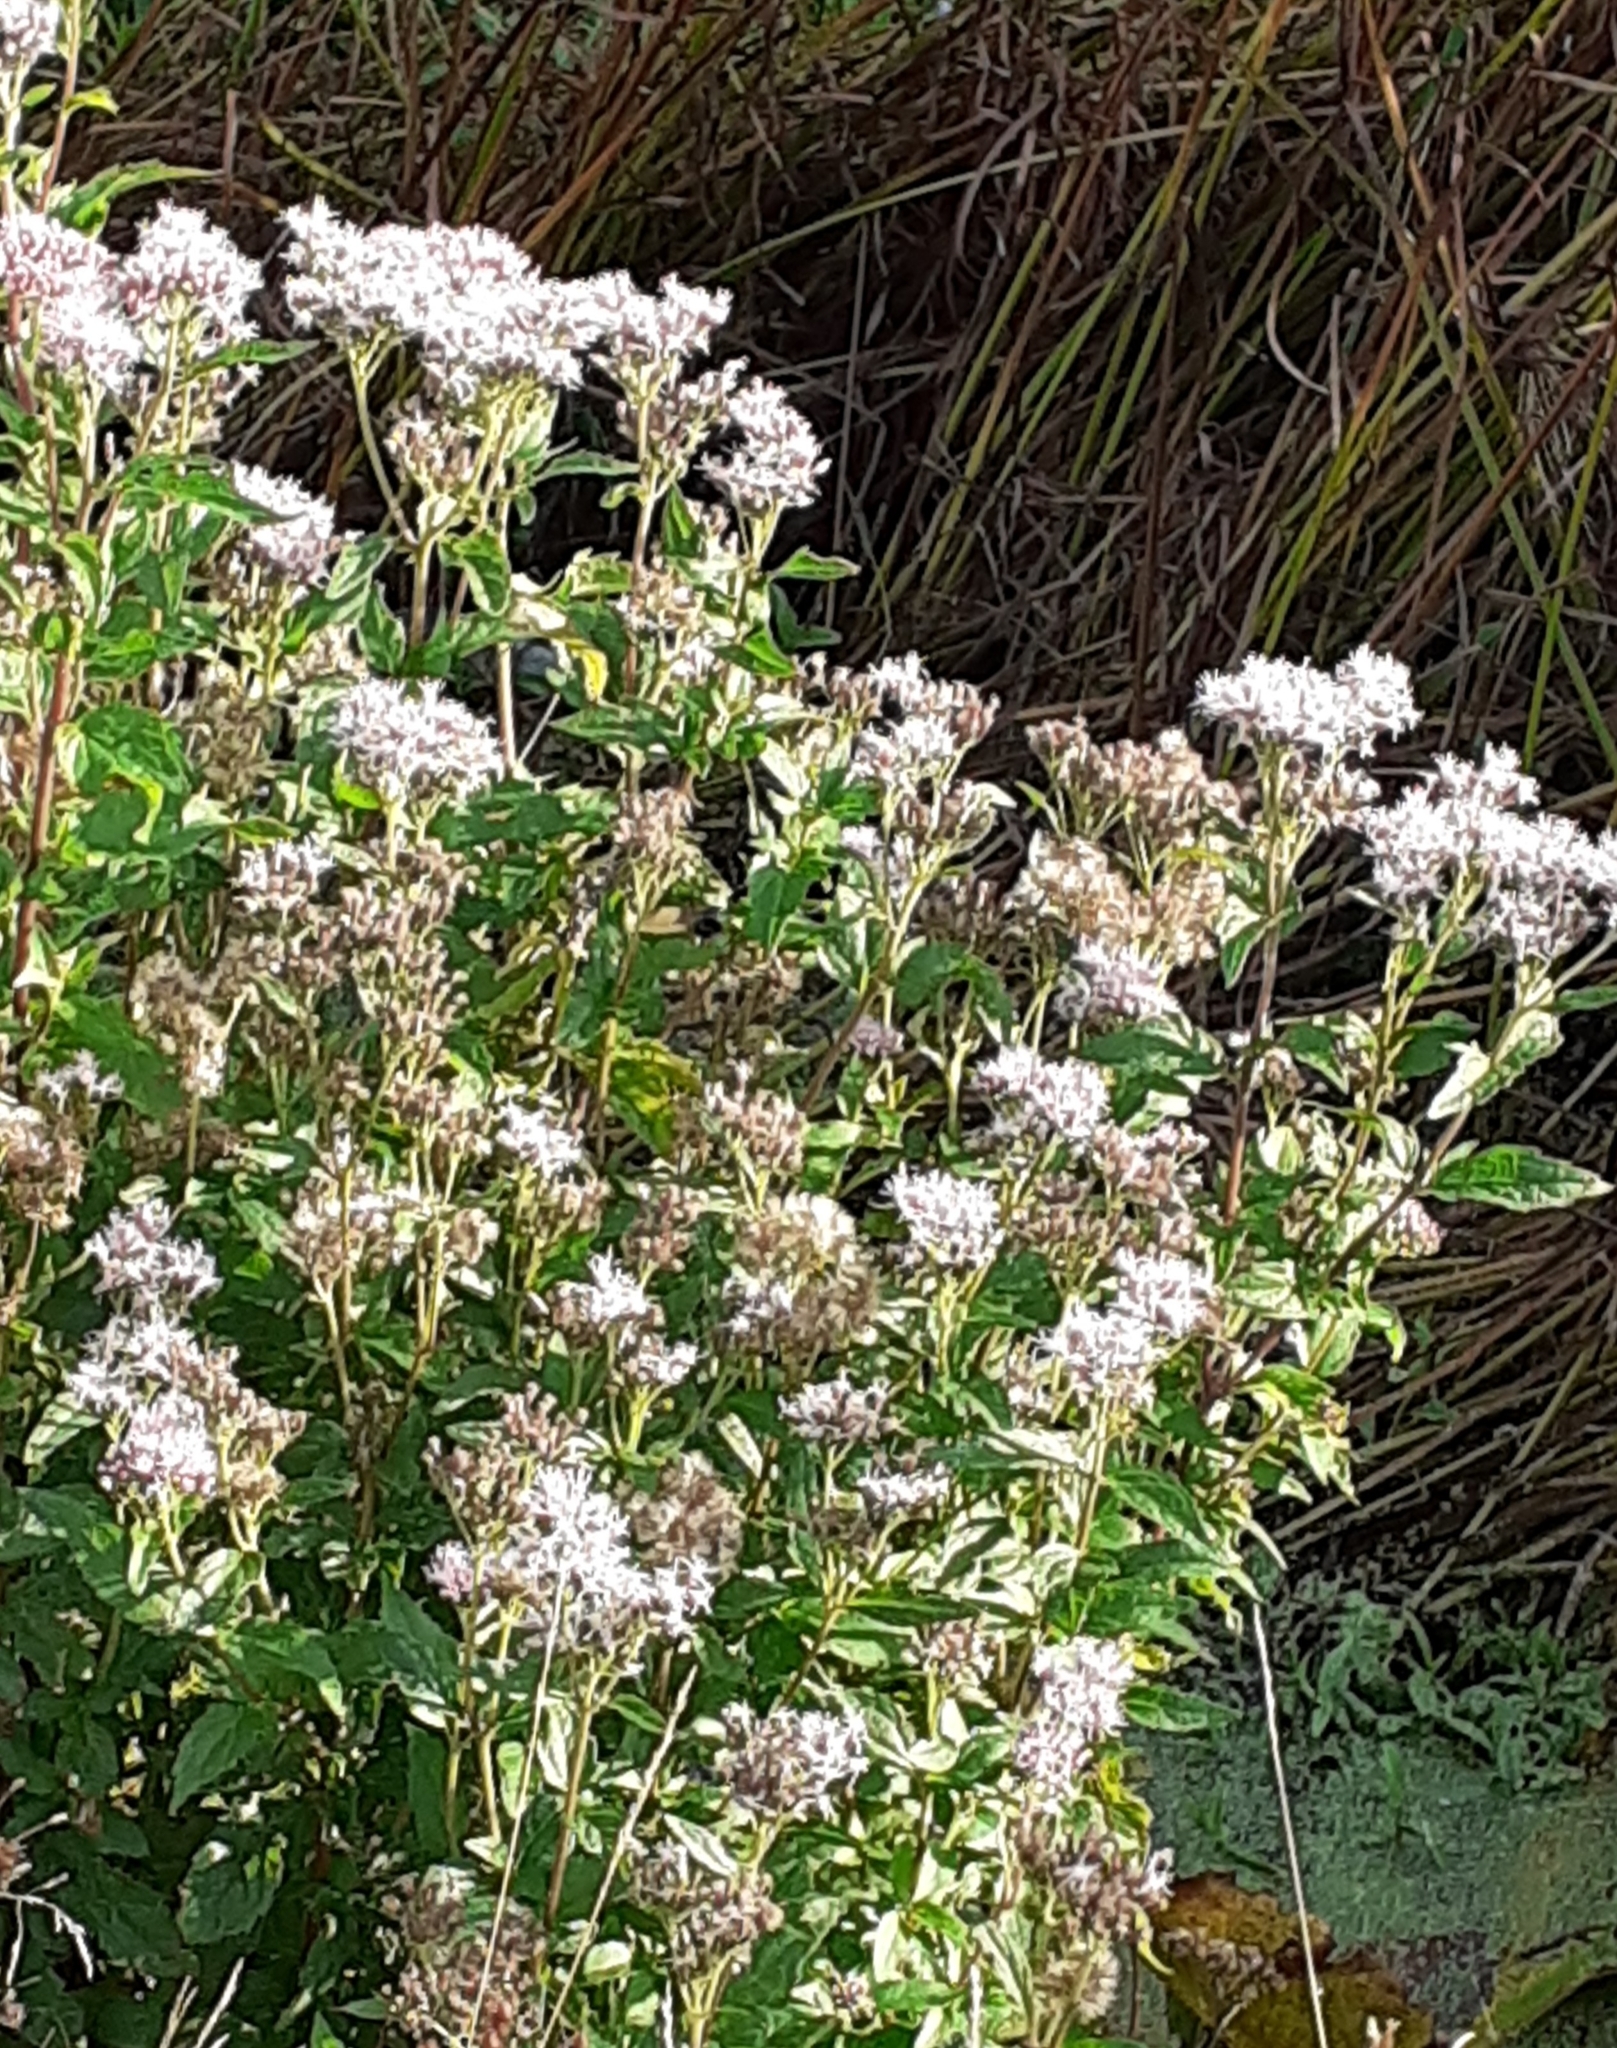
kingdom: Plantae
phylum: Tracheophyta
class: Magnoliopsida
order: Asterales
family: Asteraceae
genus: Eupatorium
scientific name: Eupatorium cannabinum
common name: Hemp-agrimony
